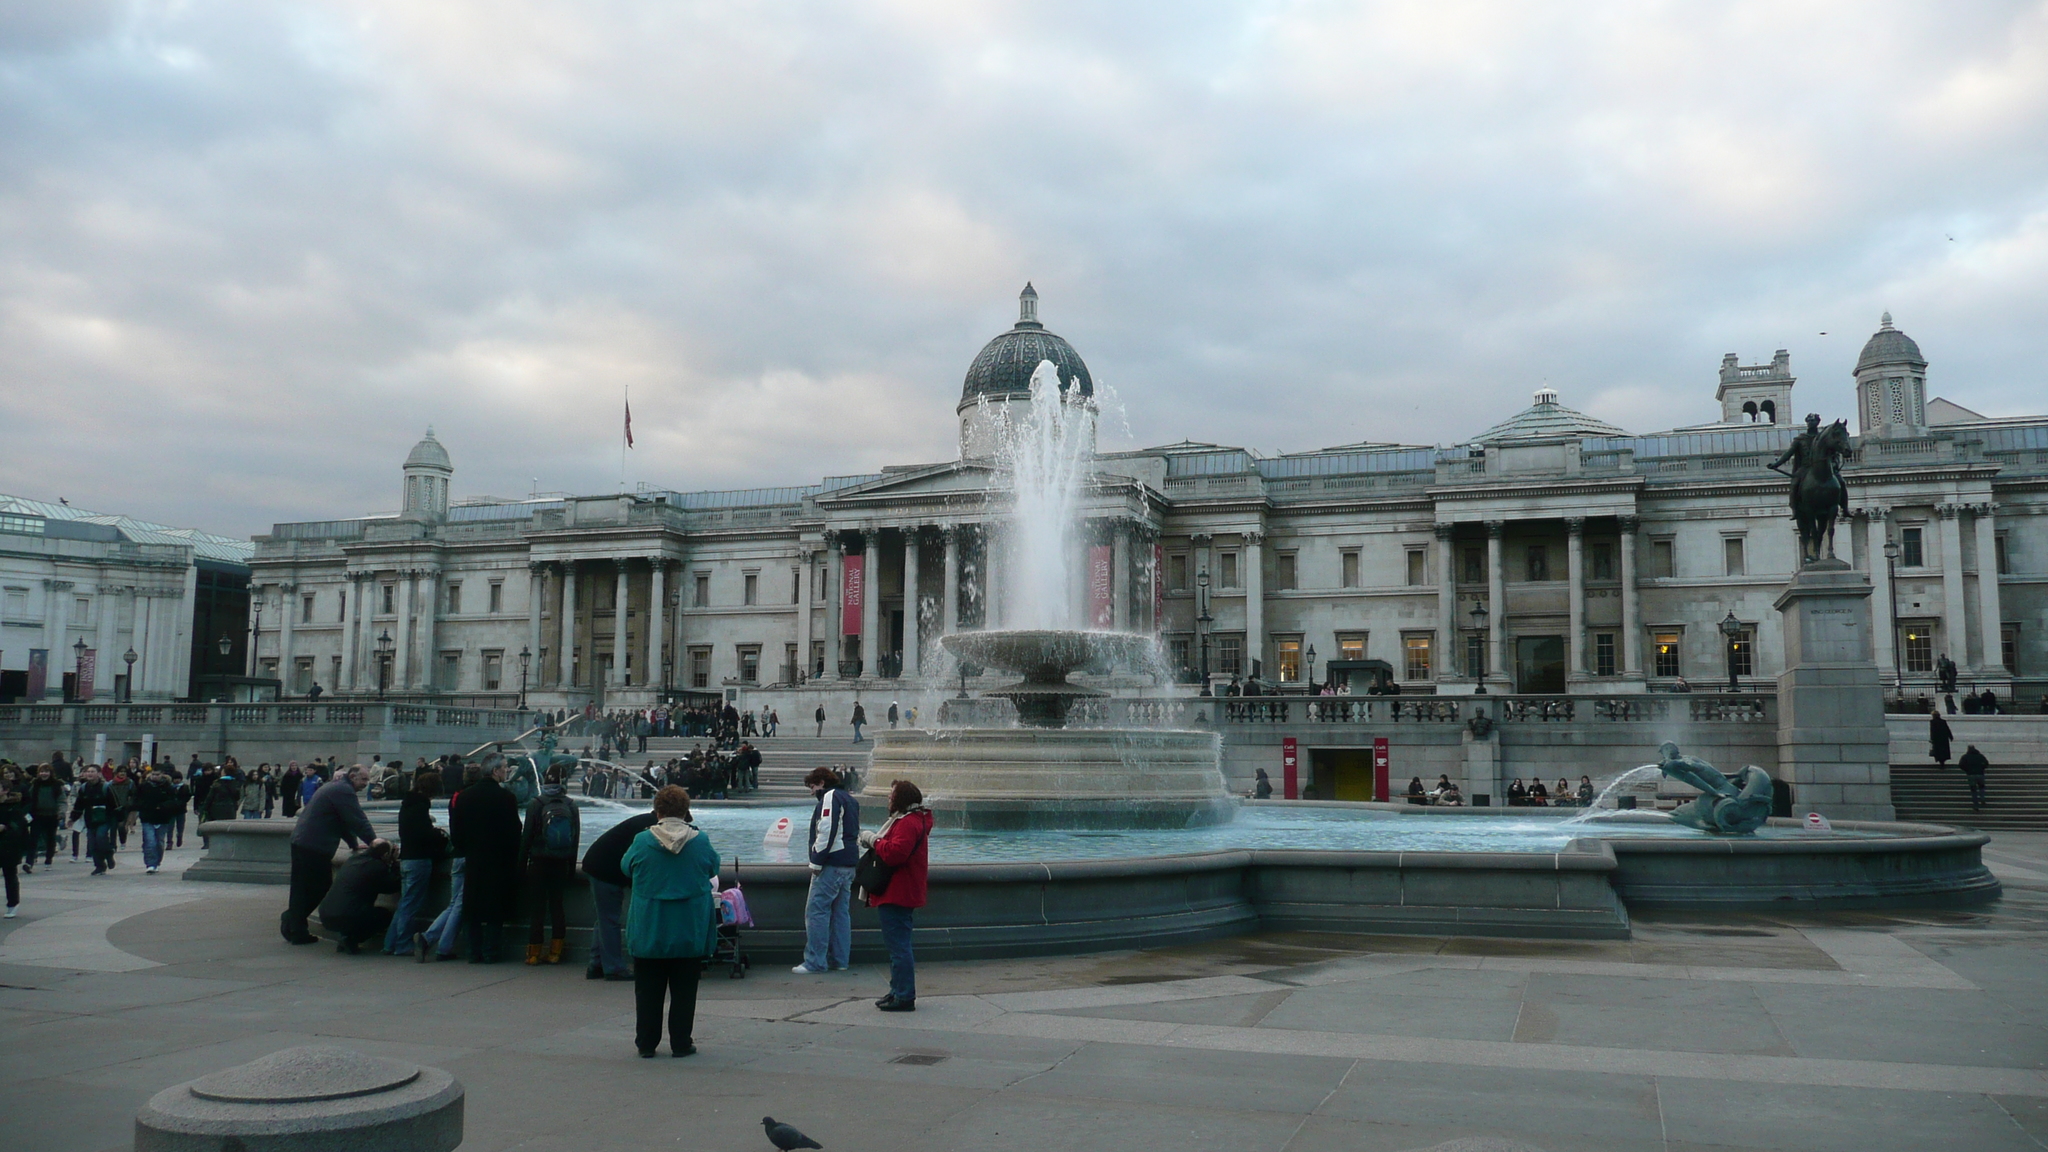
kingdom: Animalia
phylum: Chordata
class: Aves
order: Columbiformes
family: Columbidae
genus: Columba
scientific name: Columba livia
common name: Rock pigeon
